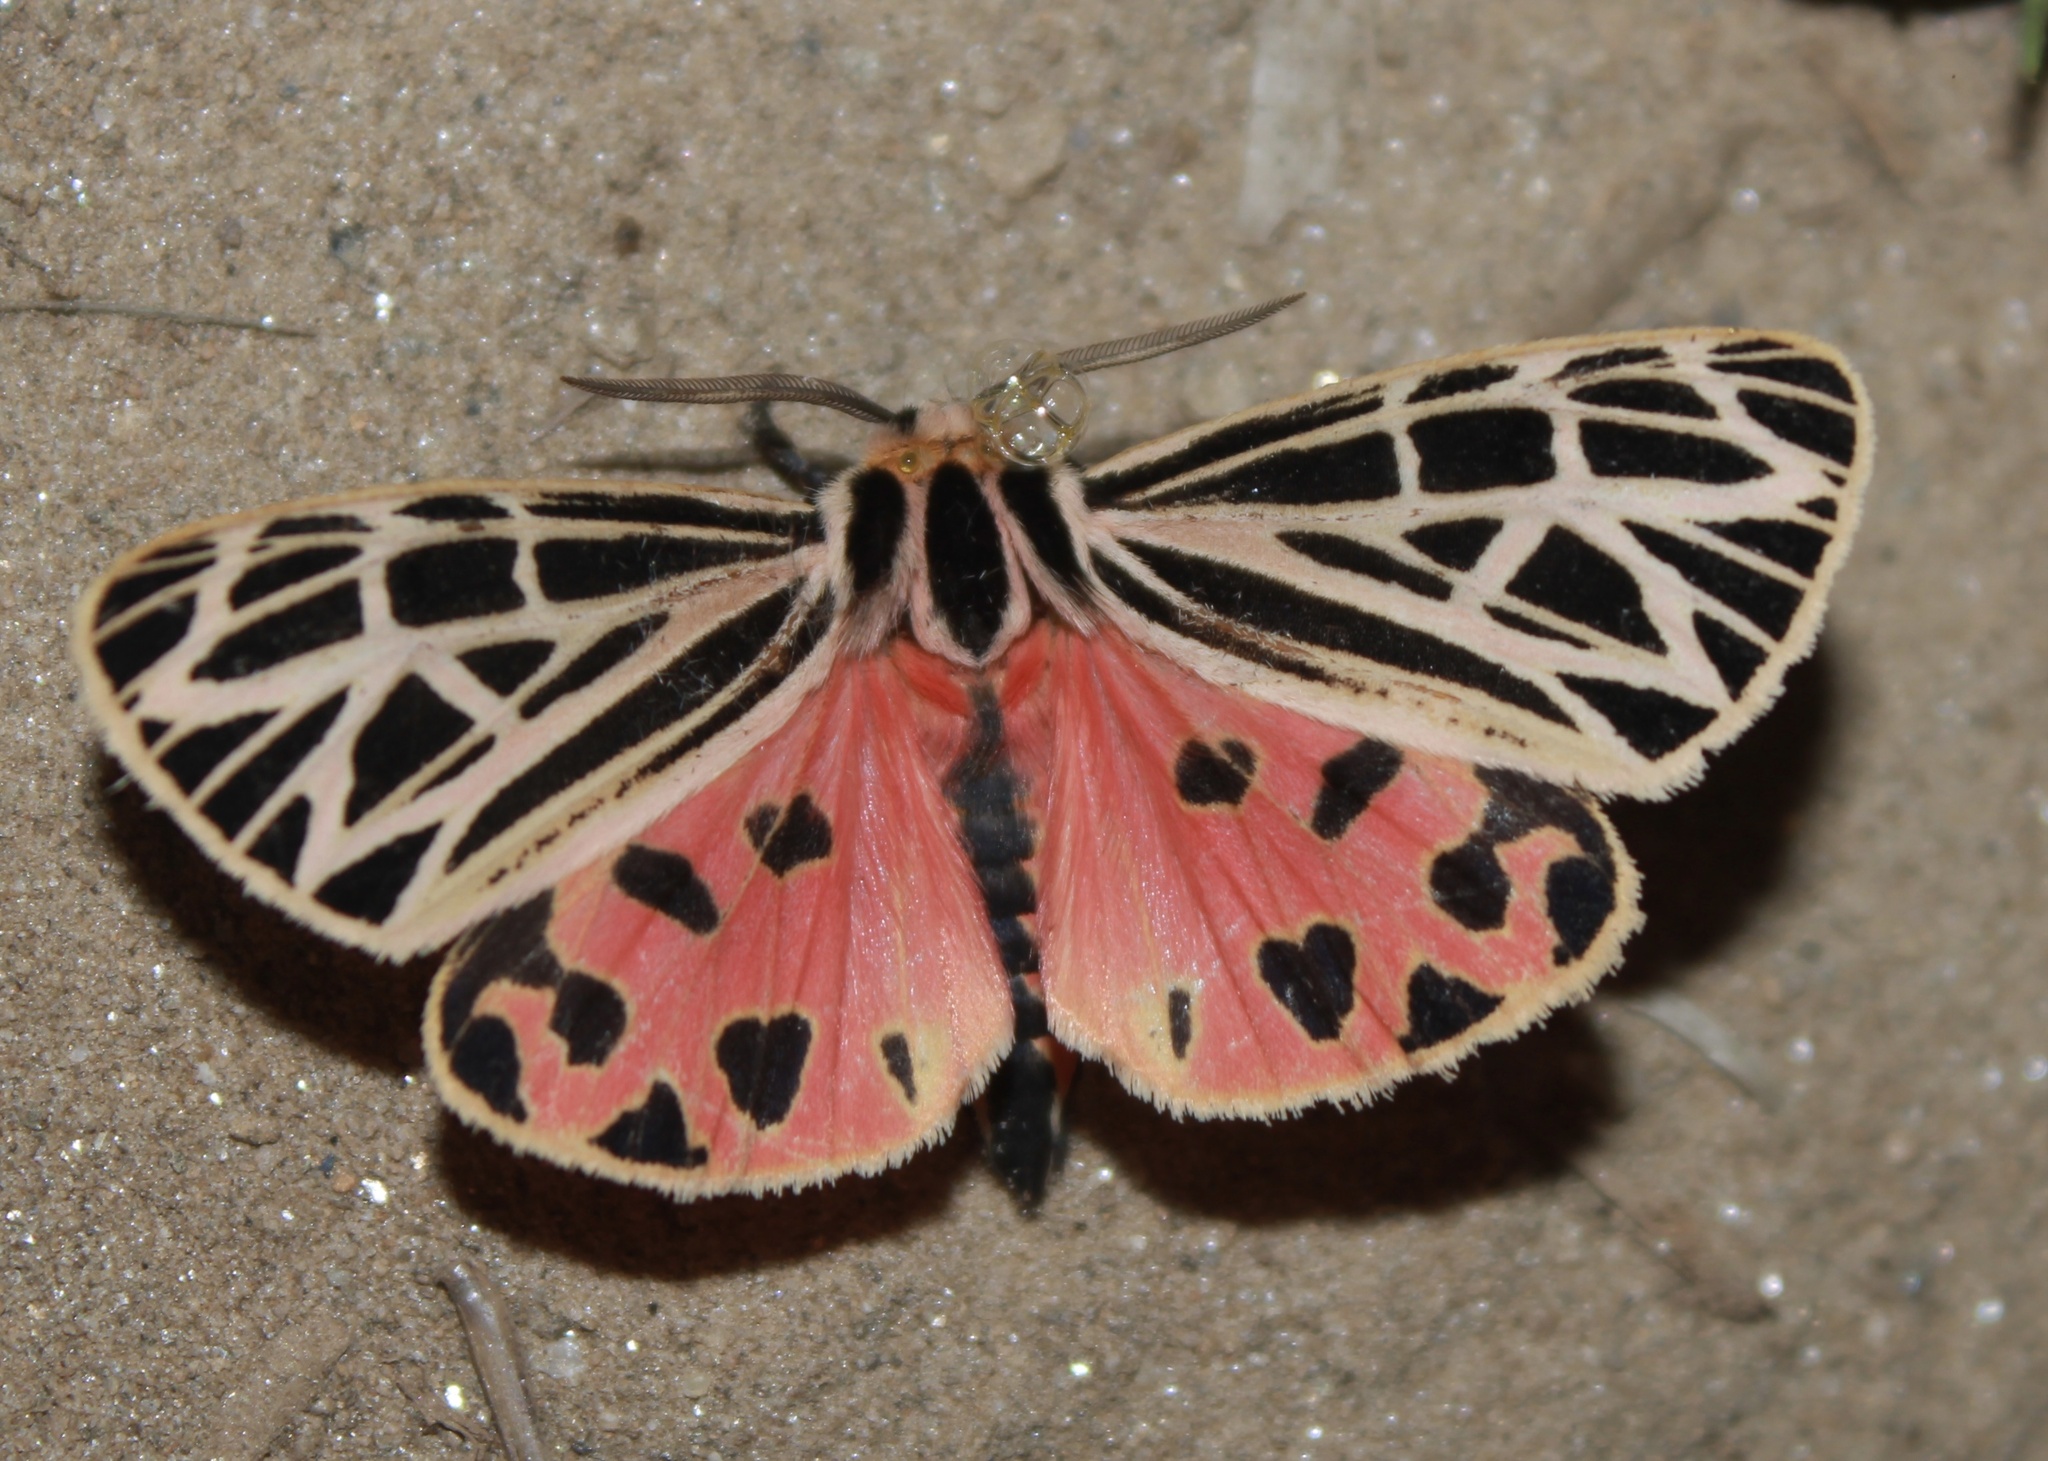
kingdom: Animalia
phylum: Arthropoda
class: Insecta
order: Lepidoptera
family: Erebidae
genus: Grammia
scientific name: Grammia virgo
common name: Virgin tiger moth
